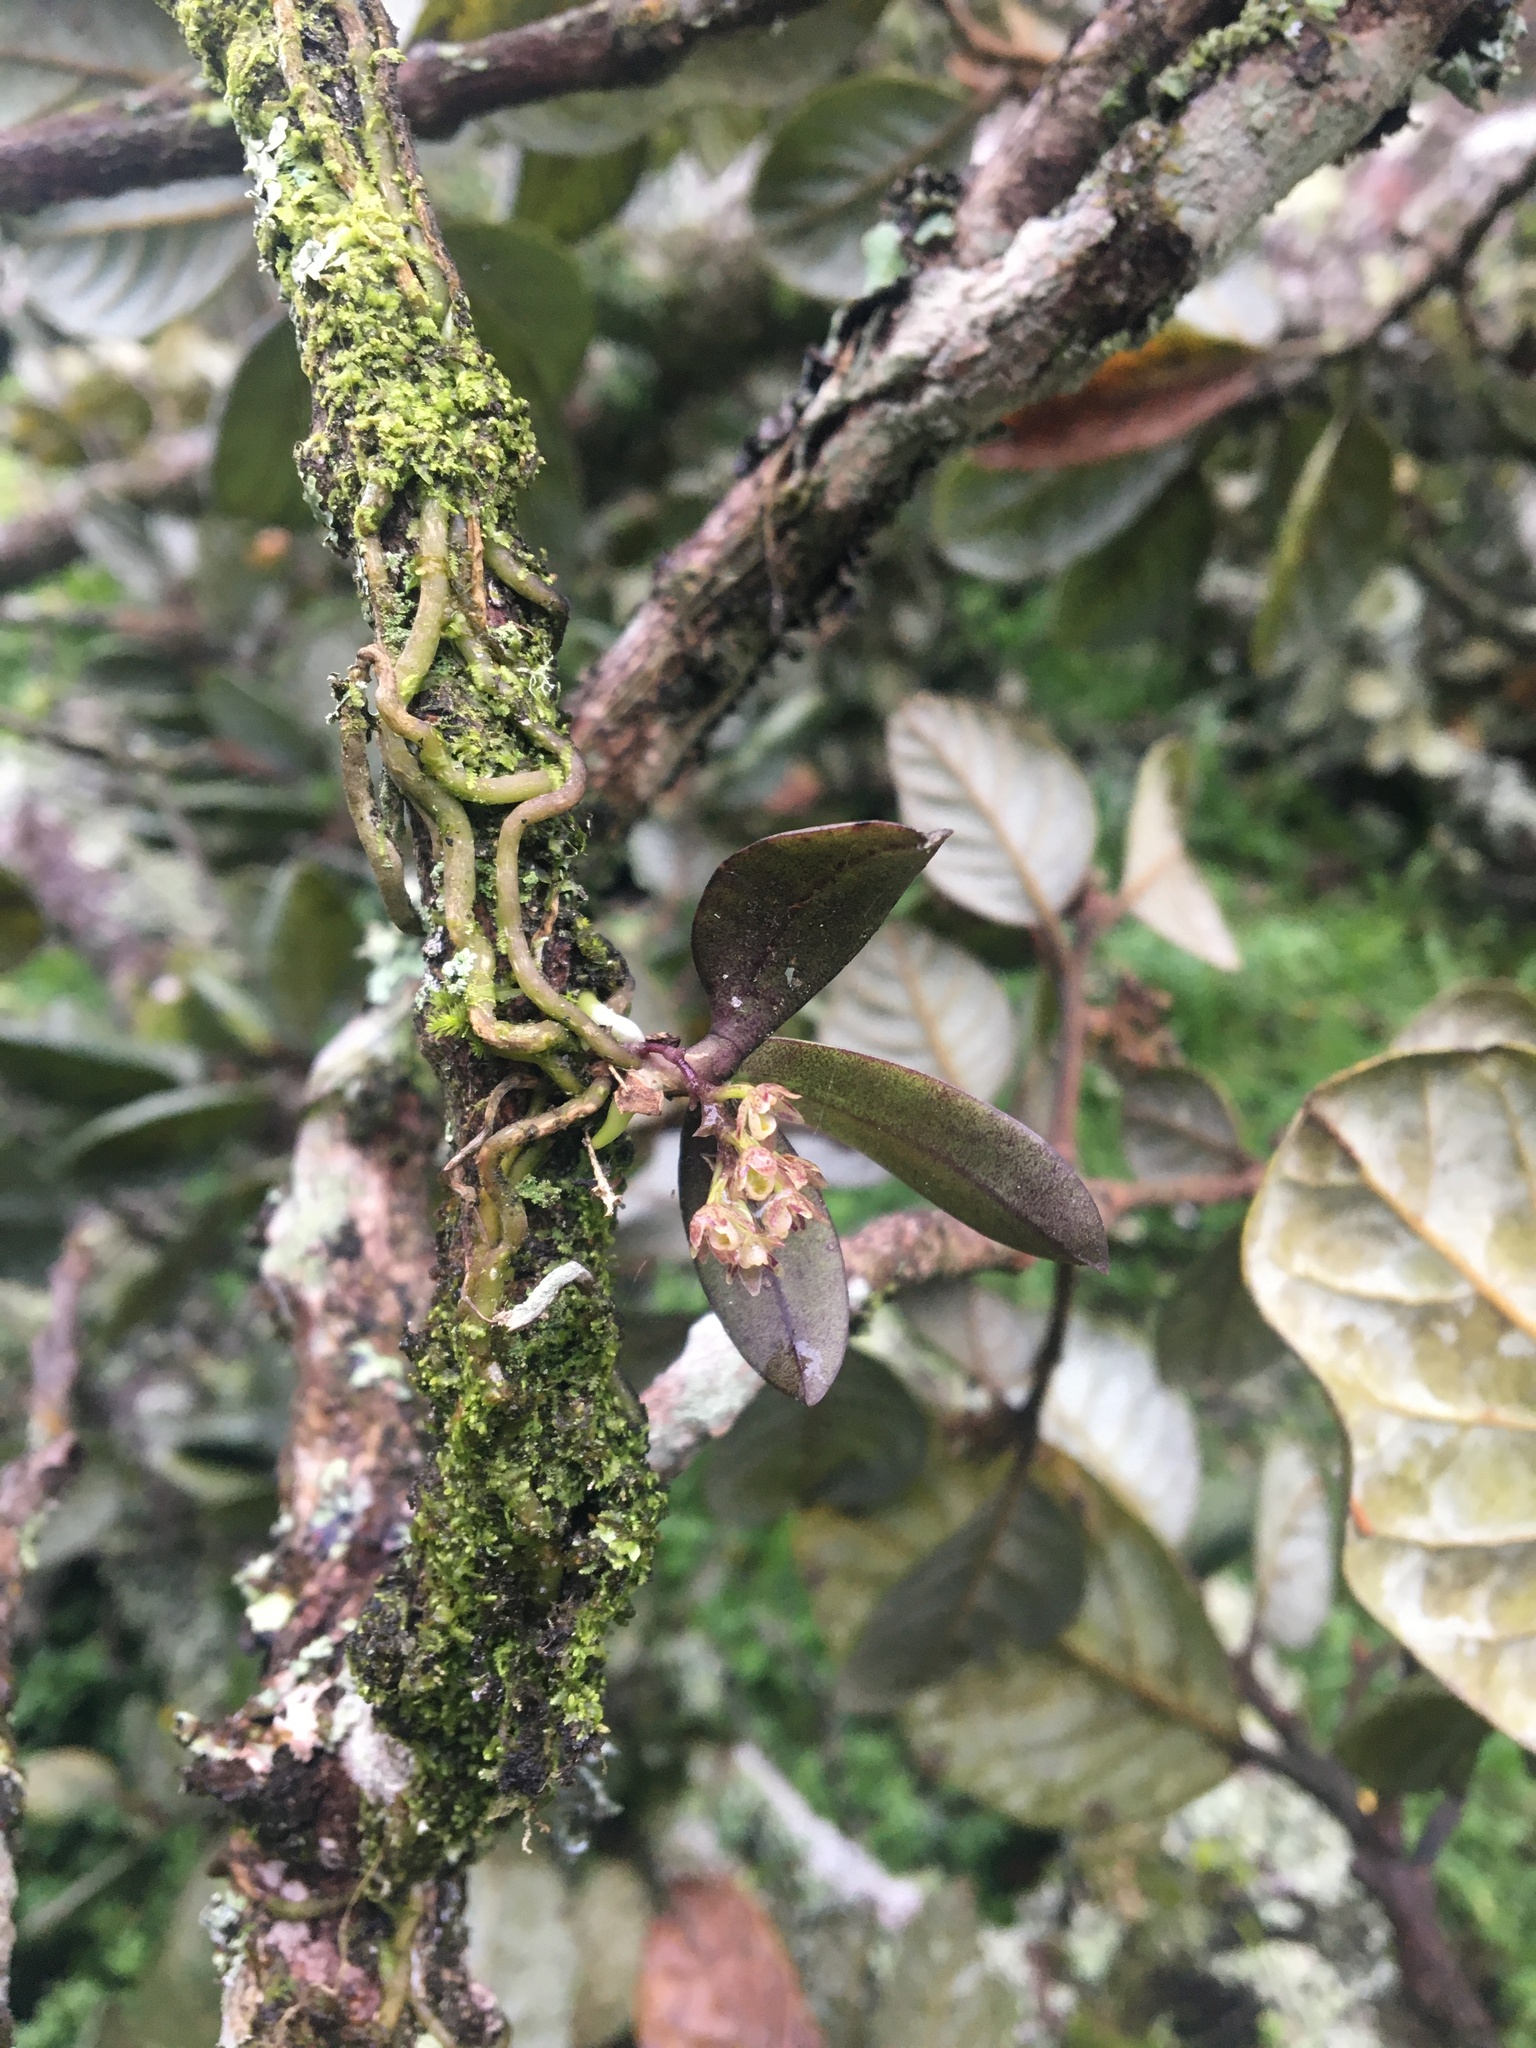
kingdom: Plantae
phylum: Tracheophyta
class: Liliopsida
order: Asparagales
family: Orchidaceae
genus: Drymoanthus
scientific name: Drymoanthus adversus
